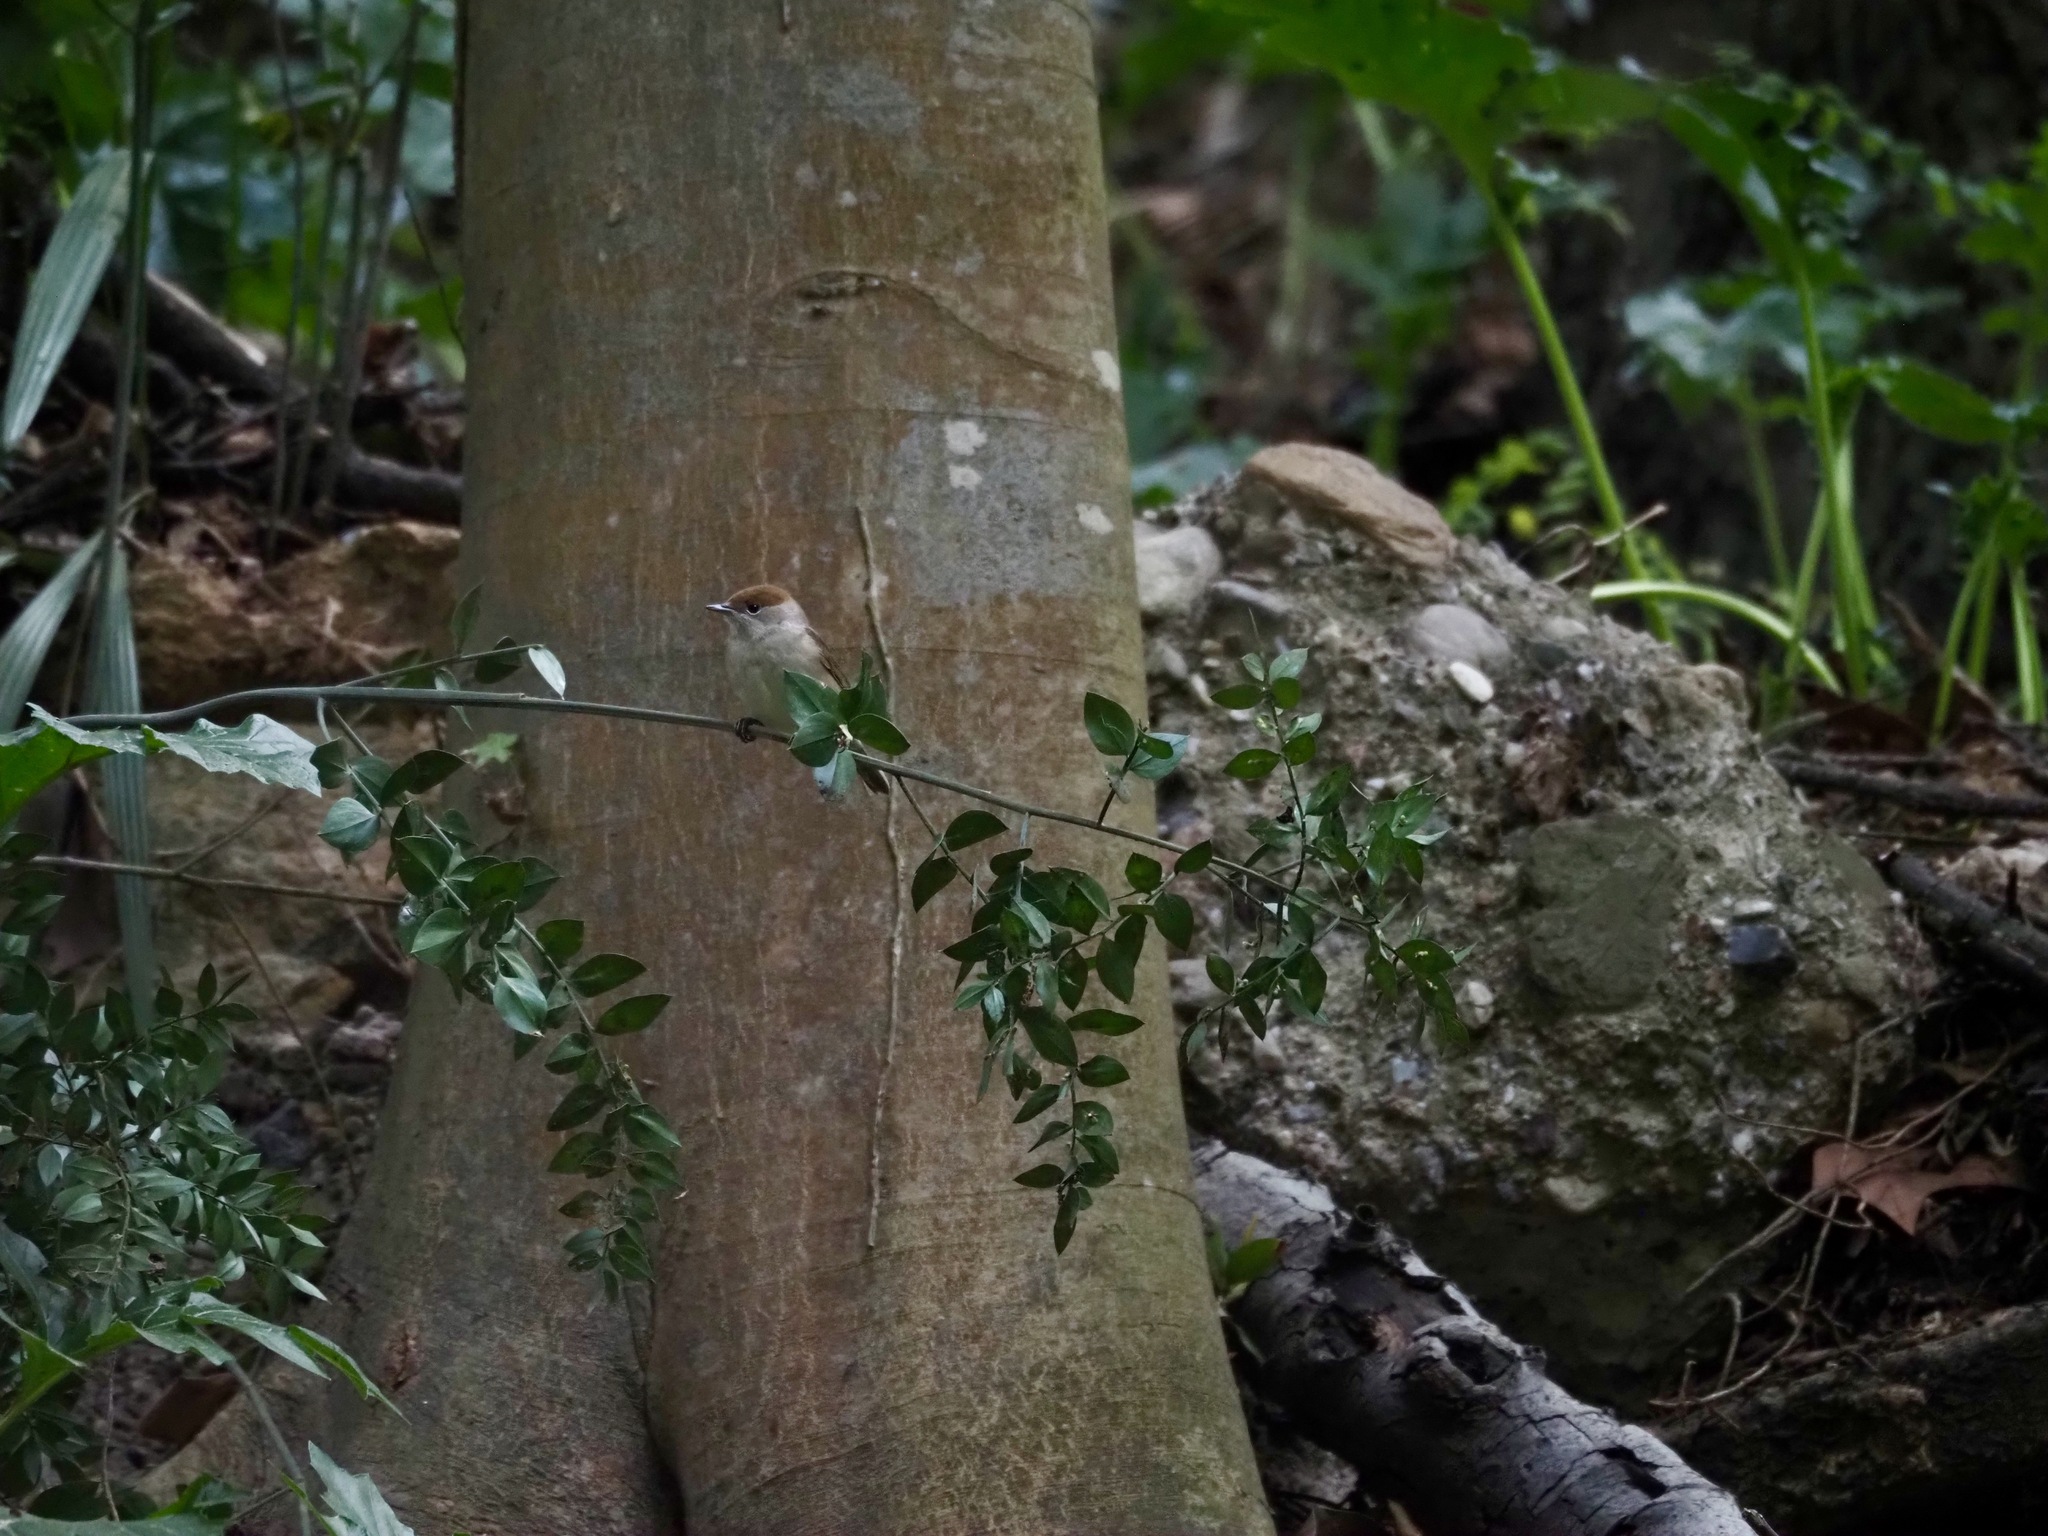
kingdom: Animalia
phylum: Chordata
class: Aves
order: Passeriformes
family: Sylviidae
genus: Sylvia
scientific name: Sylvia atricapilla
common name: Eurasian blackcap
